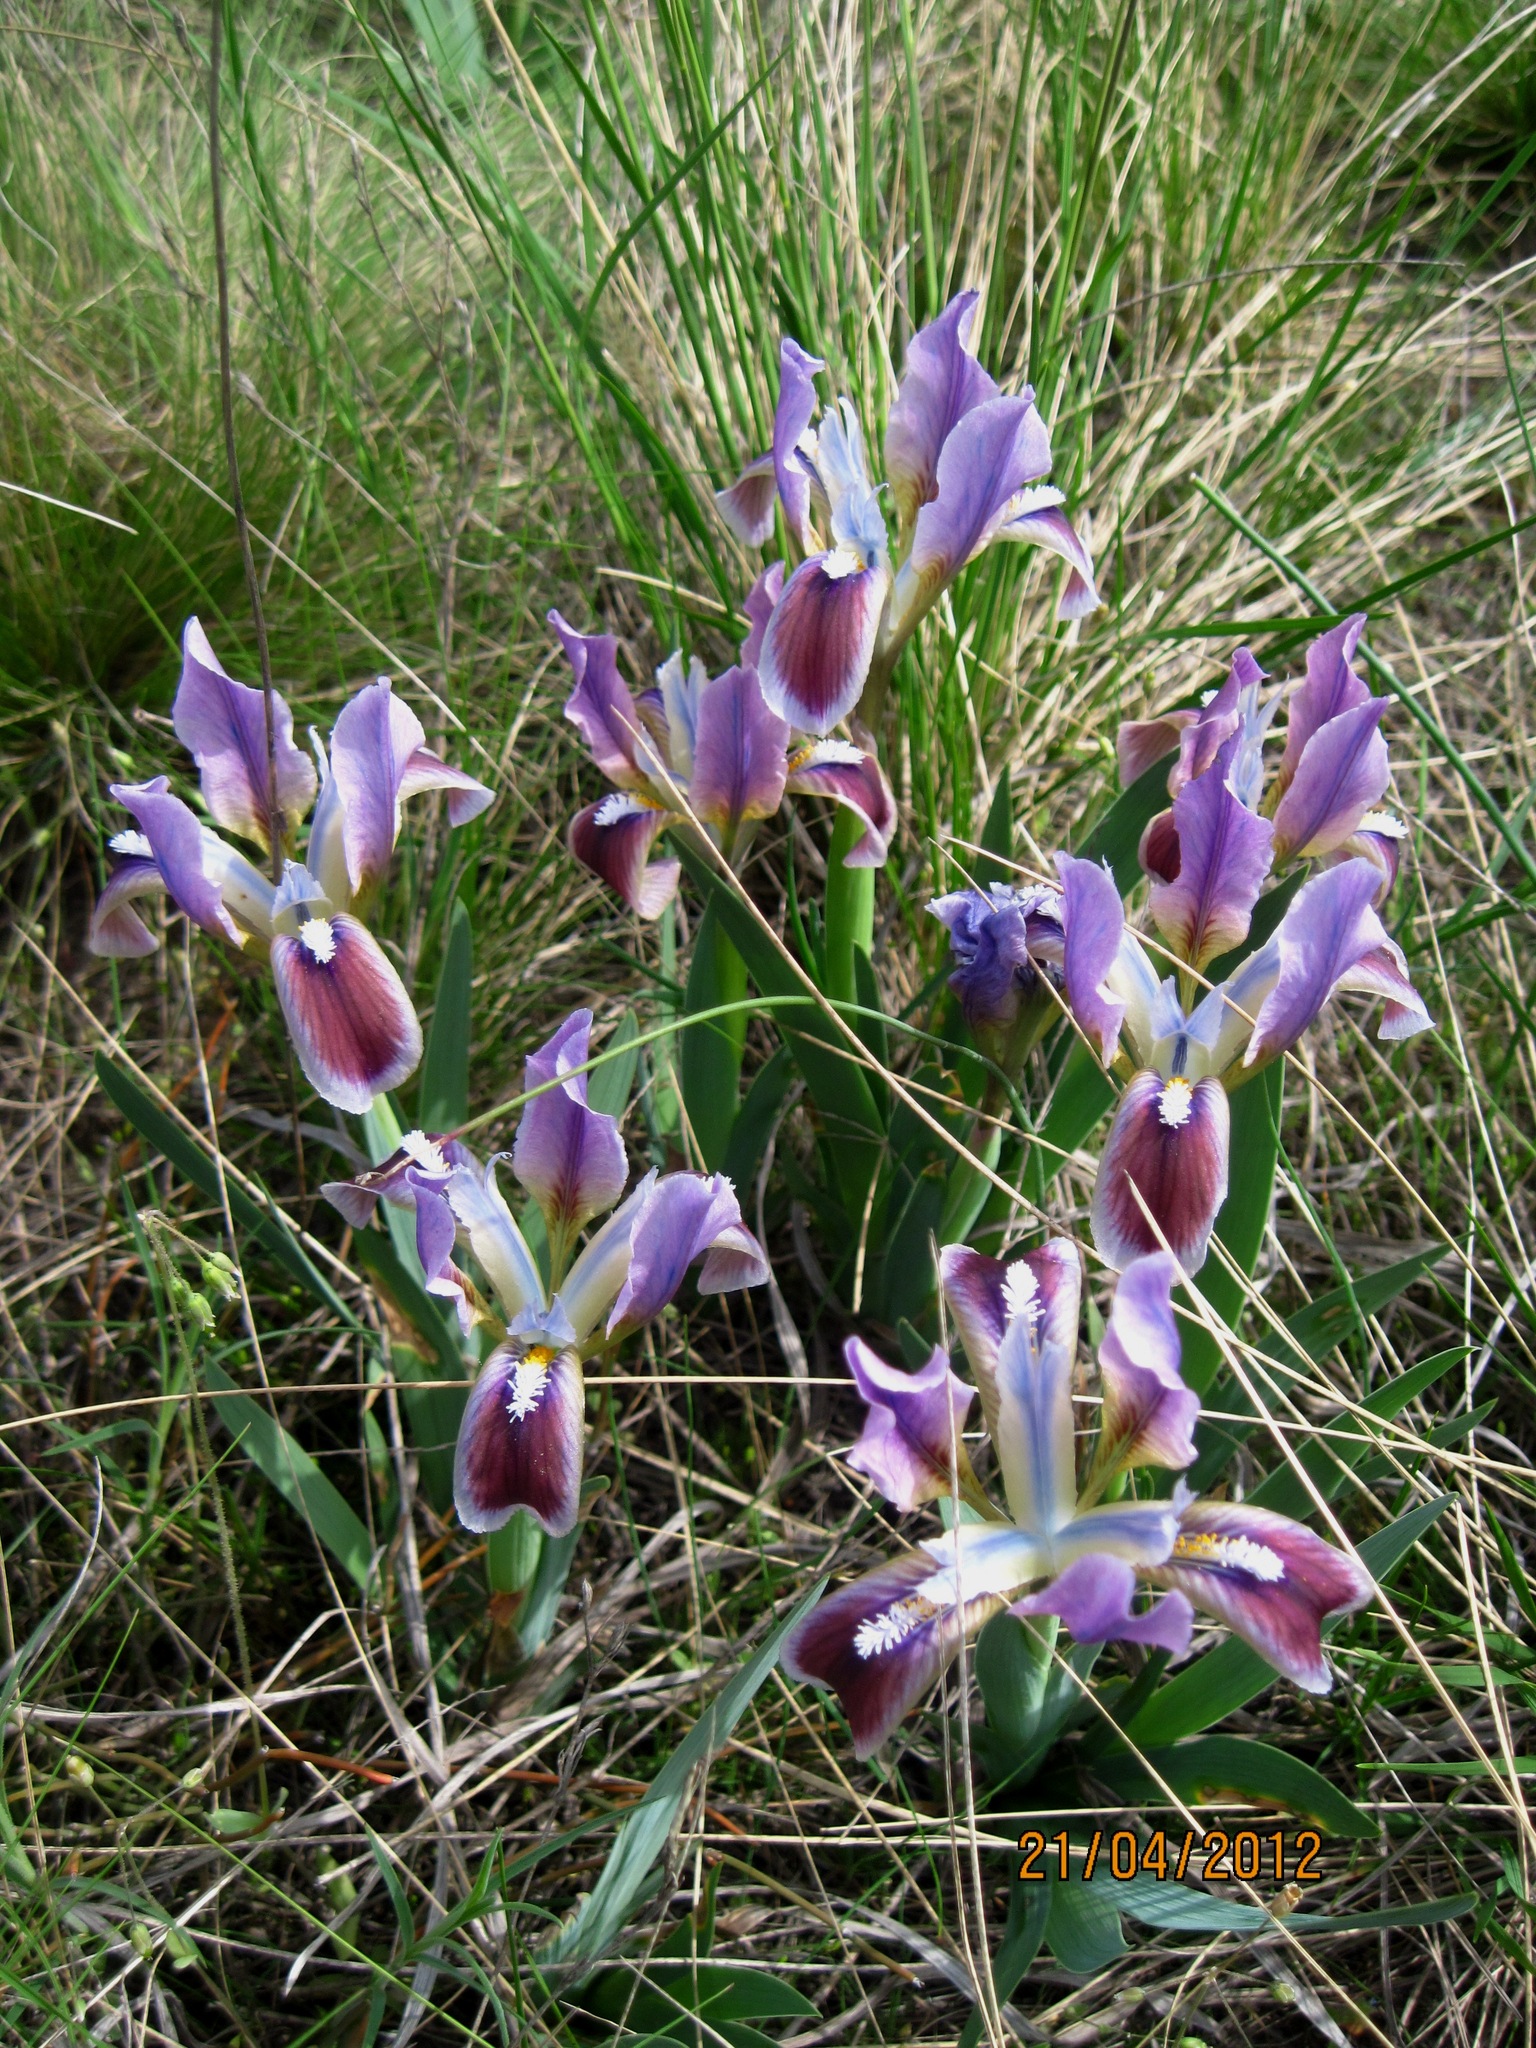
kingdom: Plantae
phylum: Tracheophyta
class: Liliopsida
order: Asparagales
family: Iridaceae
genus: Iris
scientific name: Iris pumila
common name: Dwarf iris
